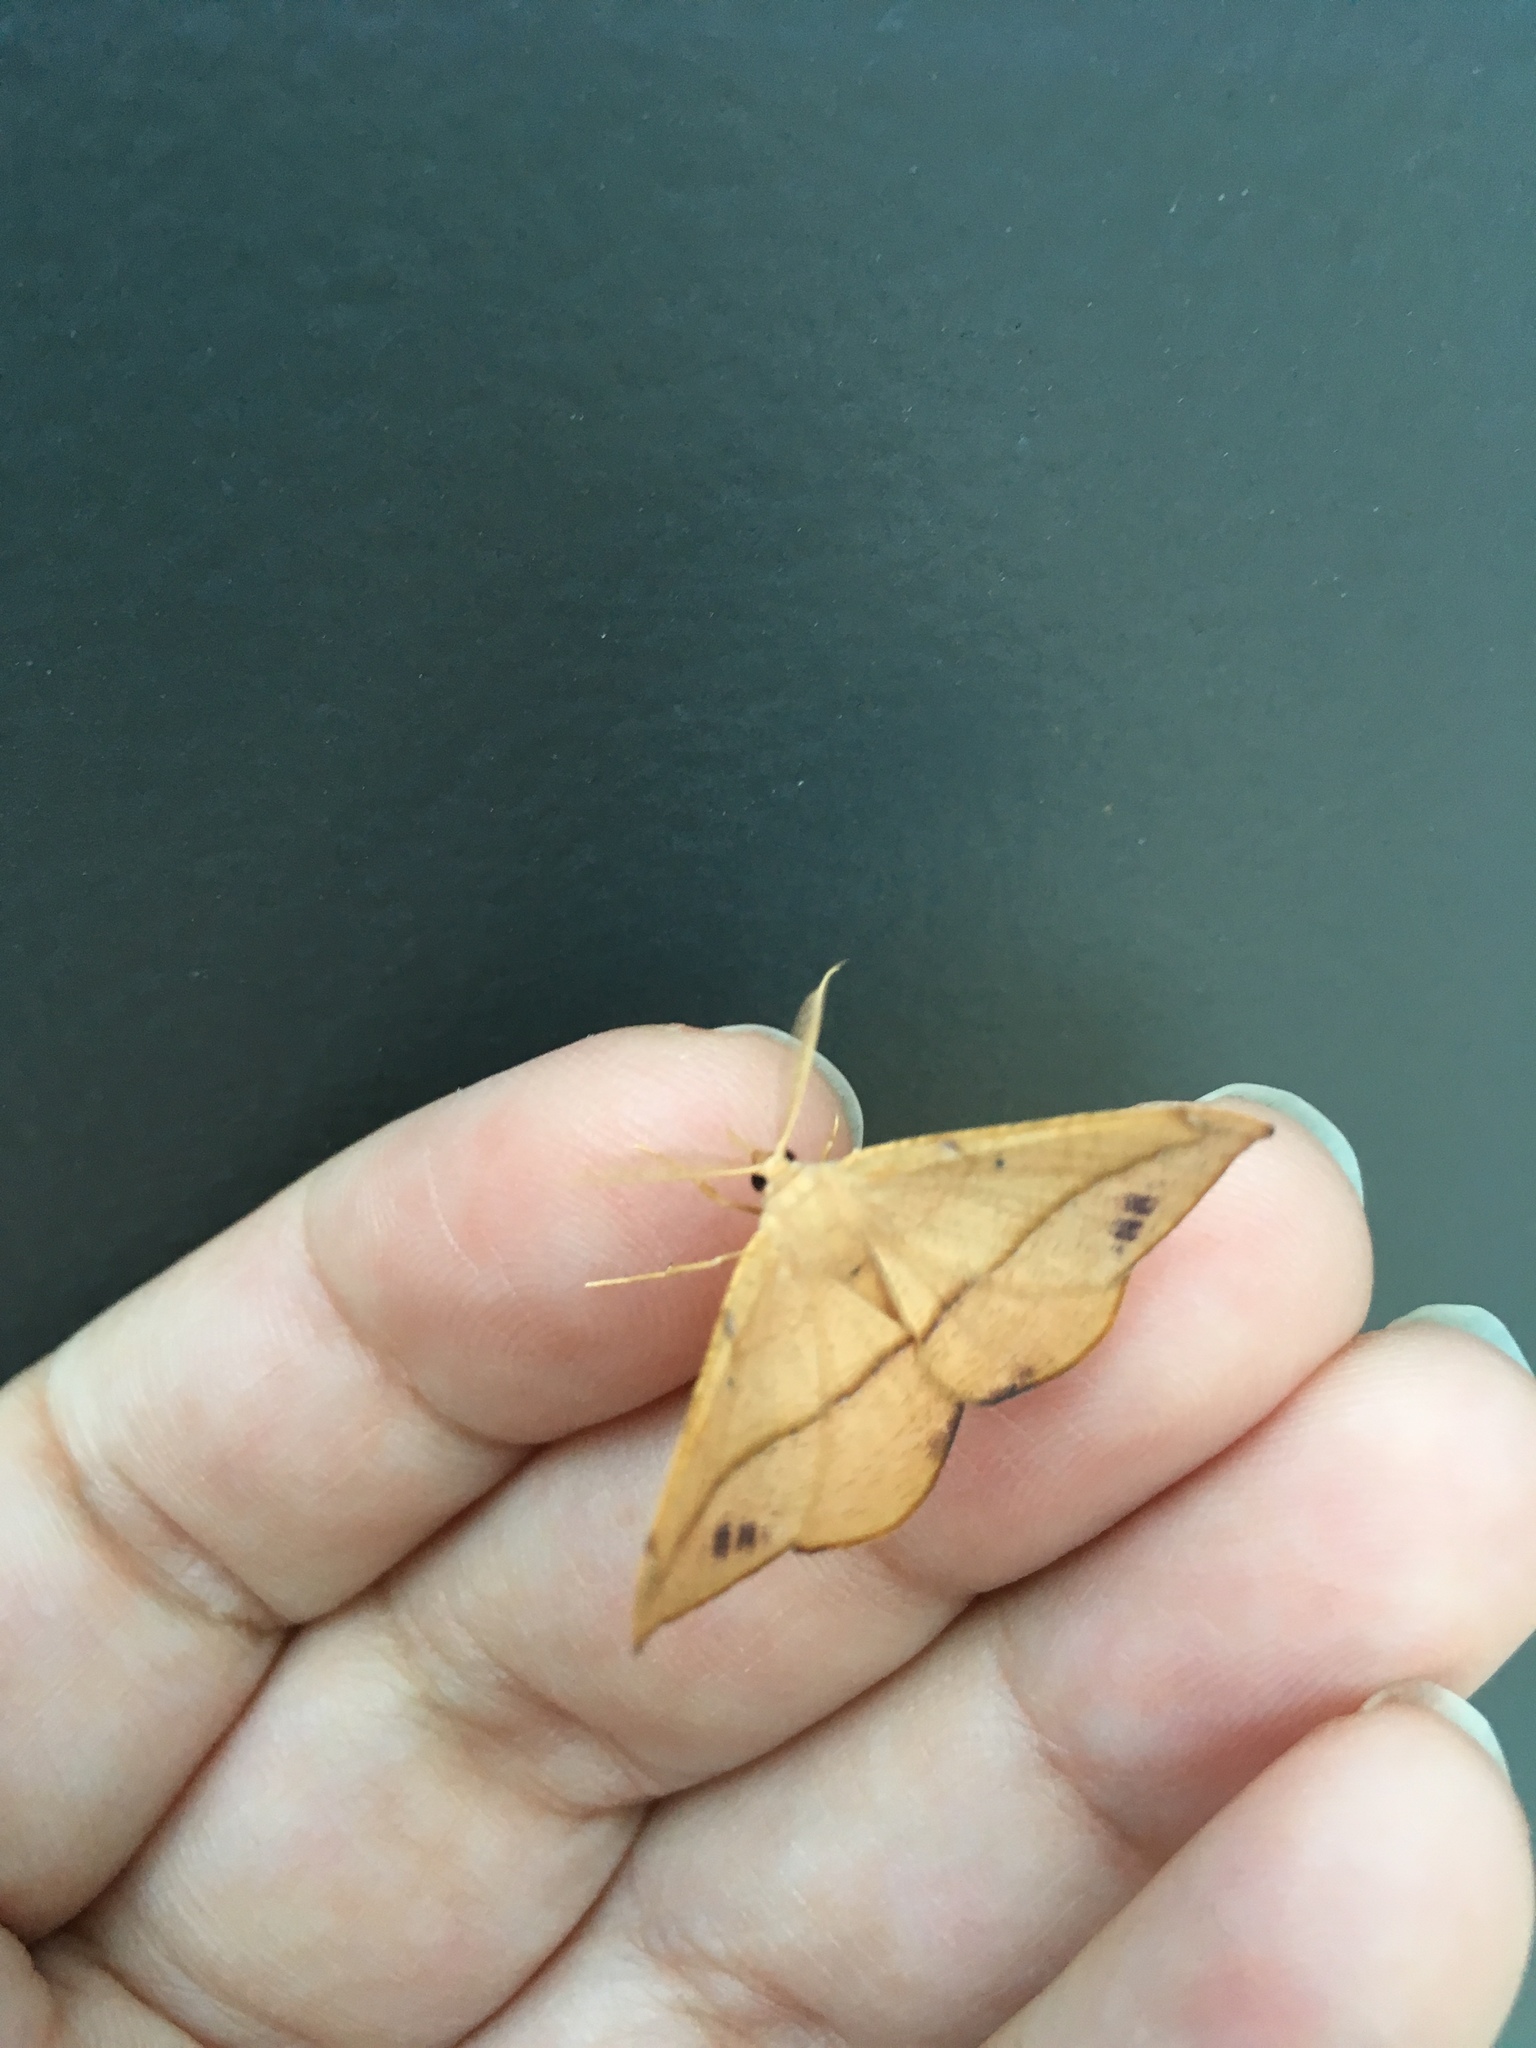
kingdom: Animalia
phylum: Arthropoda
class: Insecta
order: Lepidoptera
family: Geometridae
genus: Patalene
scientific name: Patalene olyzonaria
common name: Juniper geometer moth
